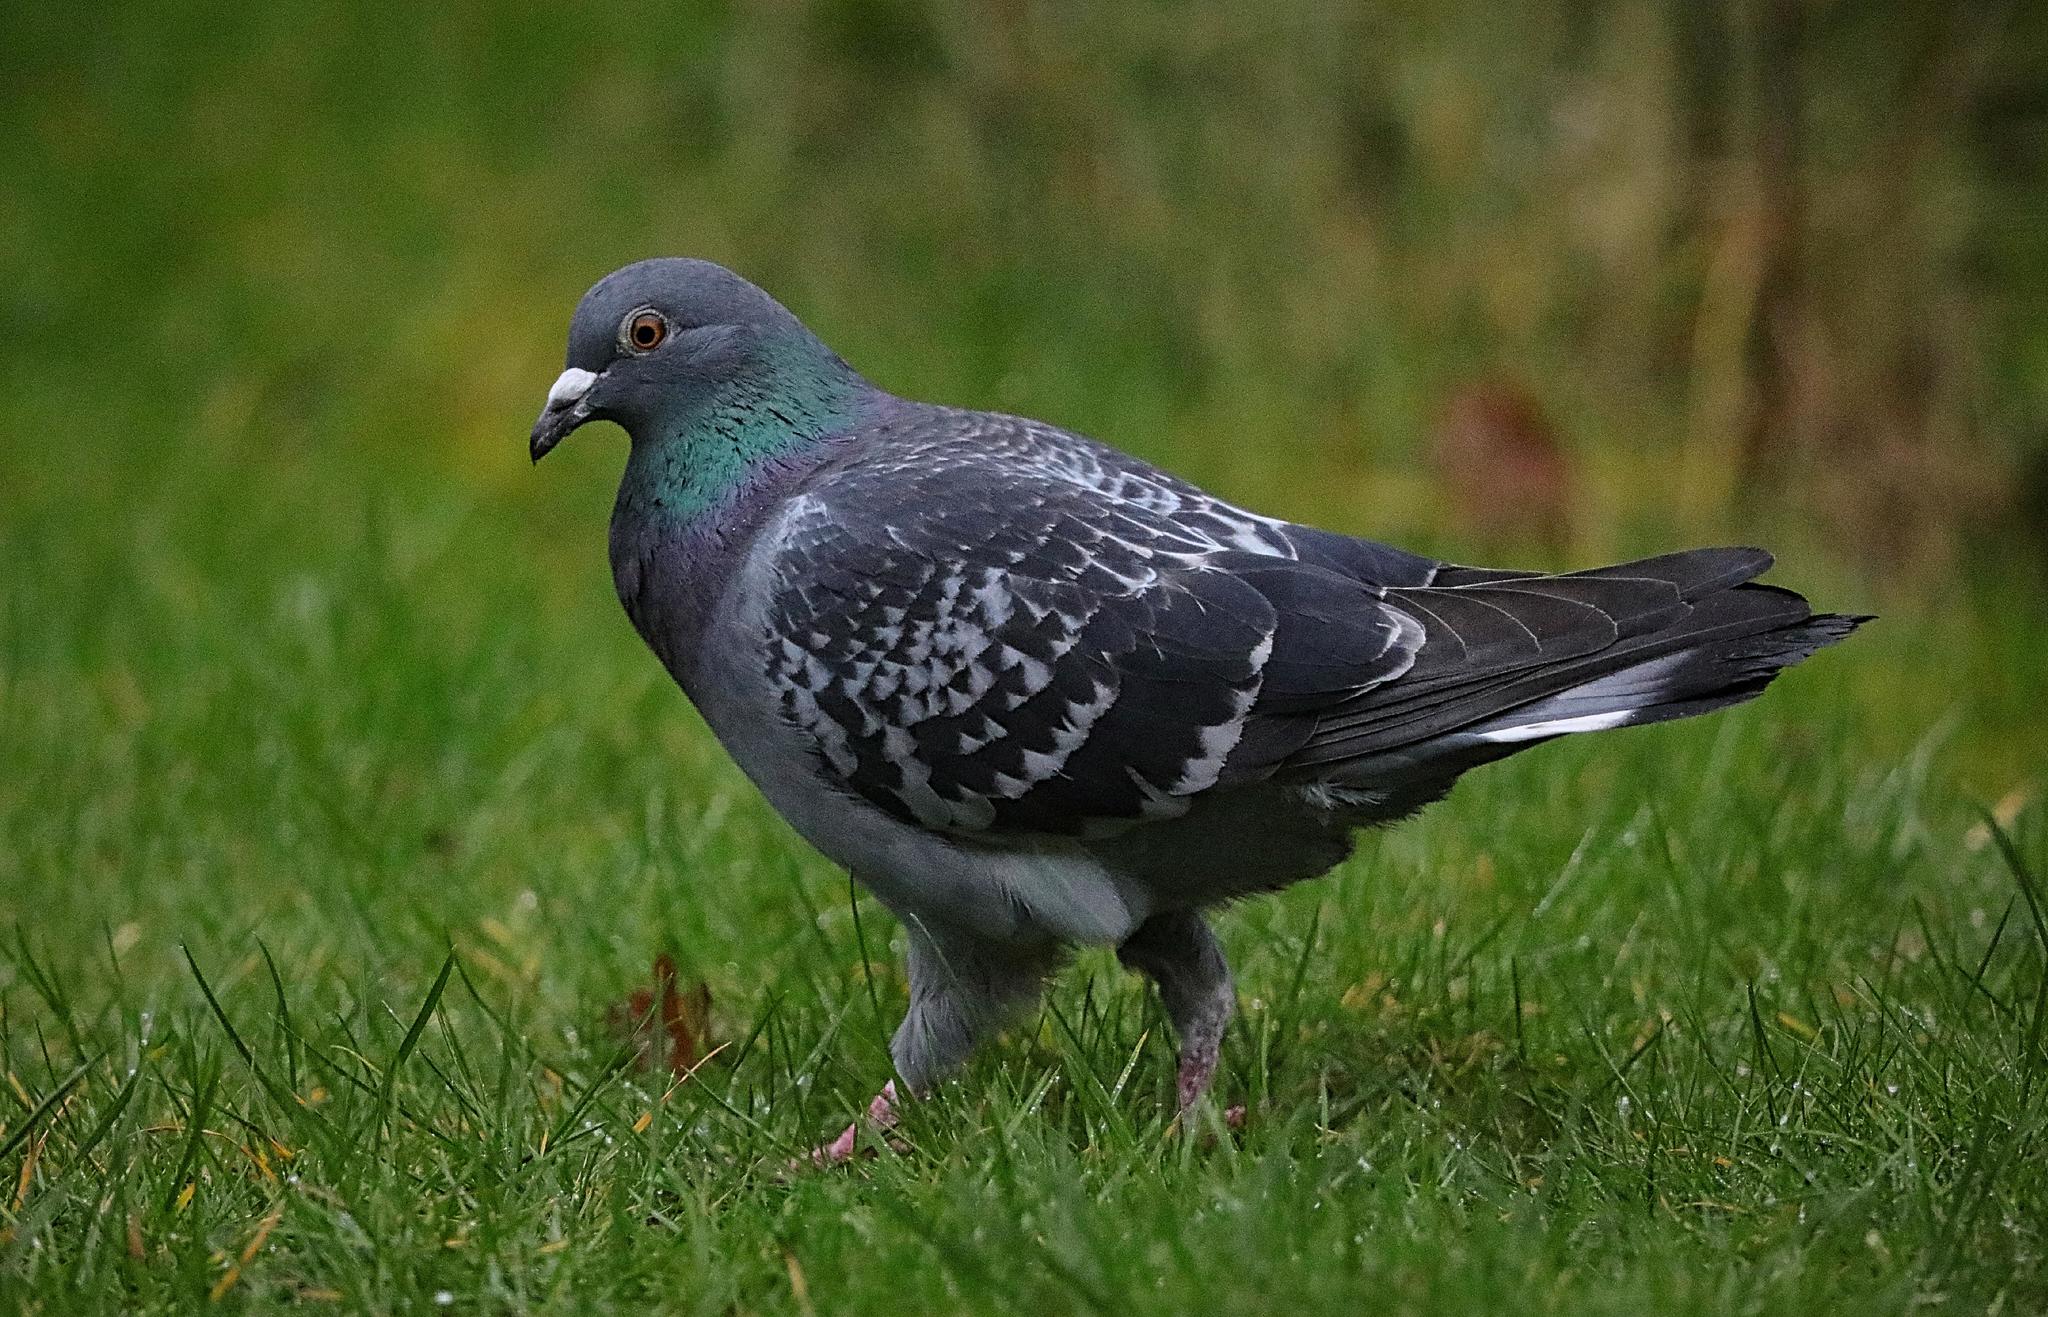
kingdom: Animalia
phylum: Chordata
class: Aves
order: Columbiformes
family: Columbidae
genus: Columba
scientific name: Columba livia
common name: Rock pigeon
